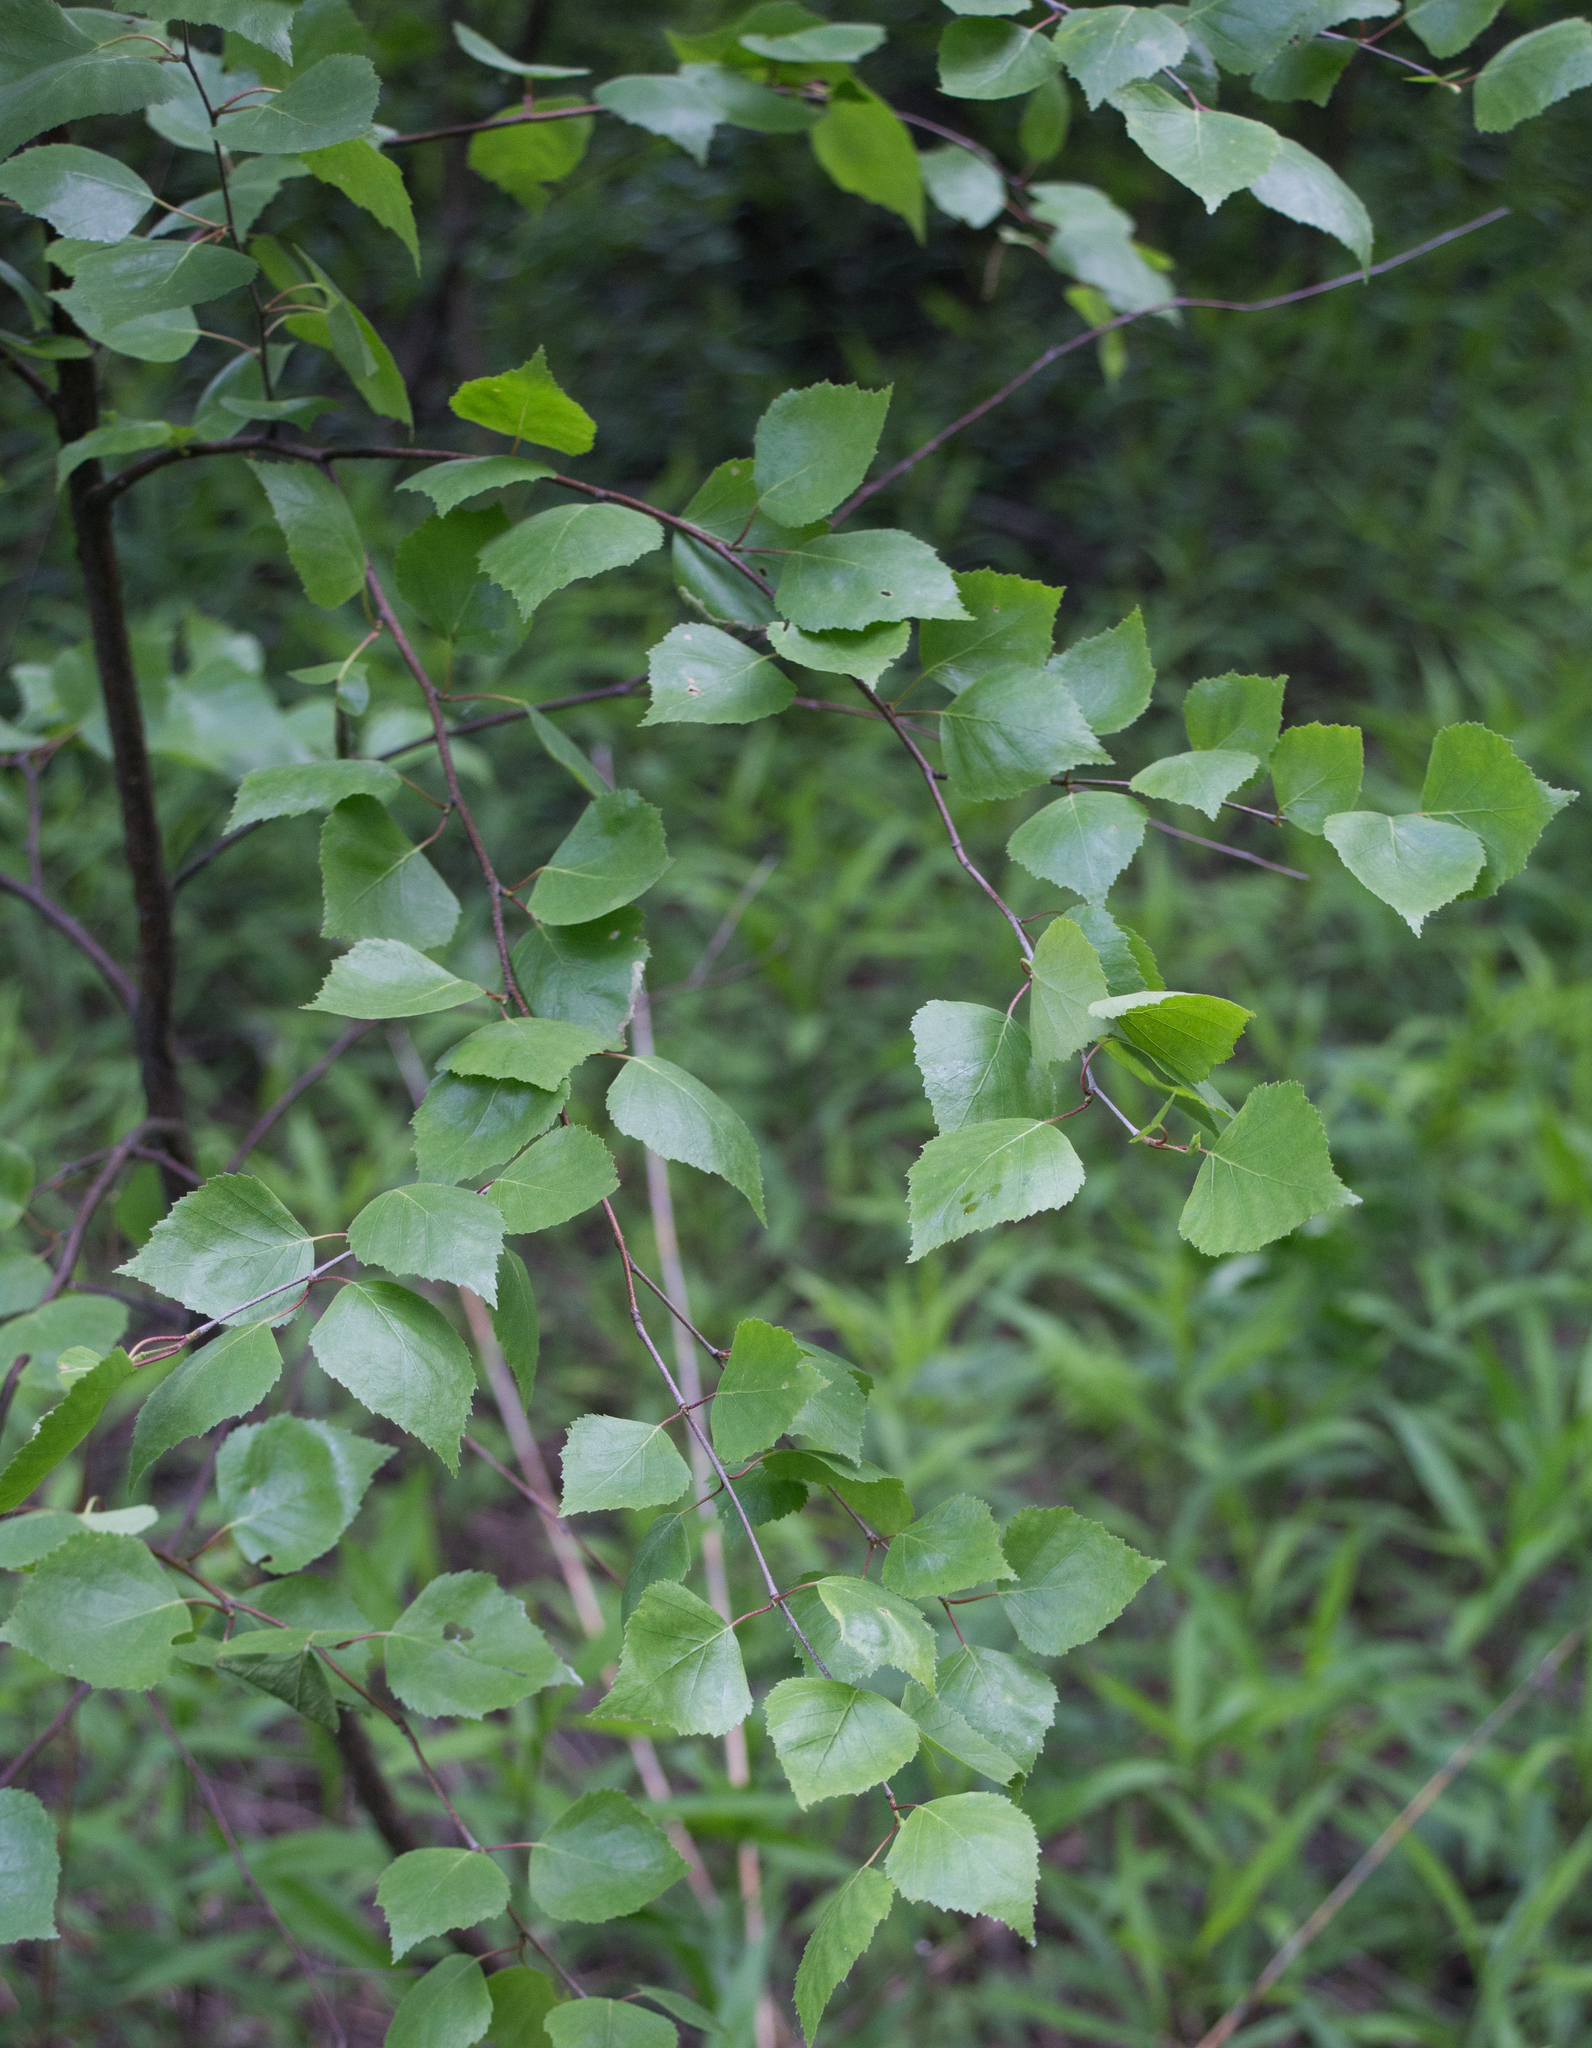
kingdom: Plantae
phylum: Tracheophyta
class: Magnoliopsida
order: Fagales
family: Betulaceae
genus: Betula
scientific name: Betula pendula
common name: Silver birch
